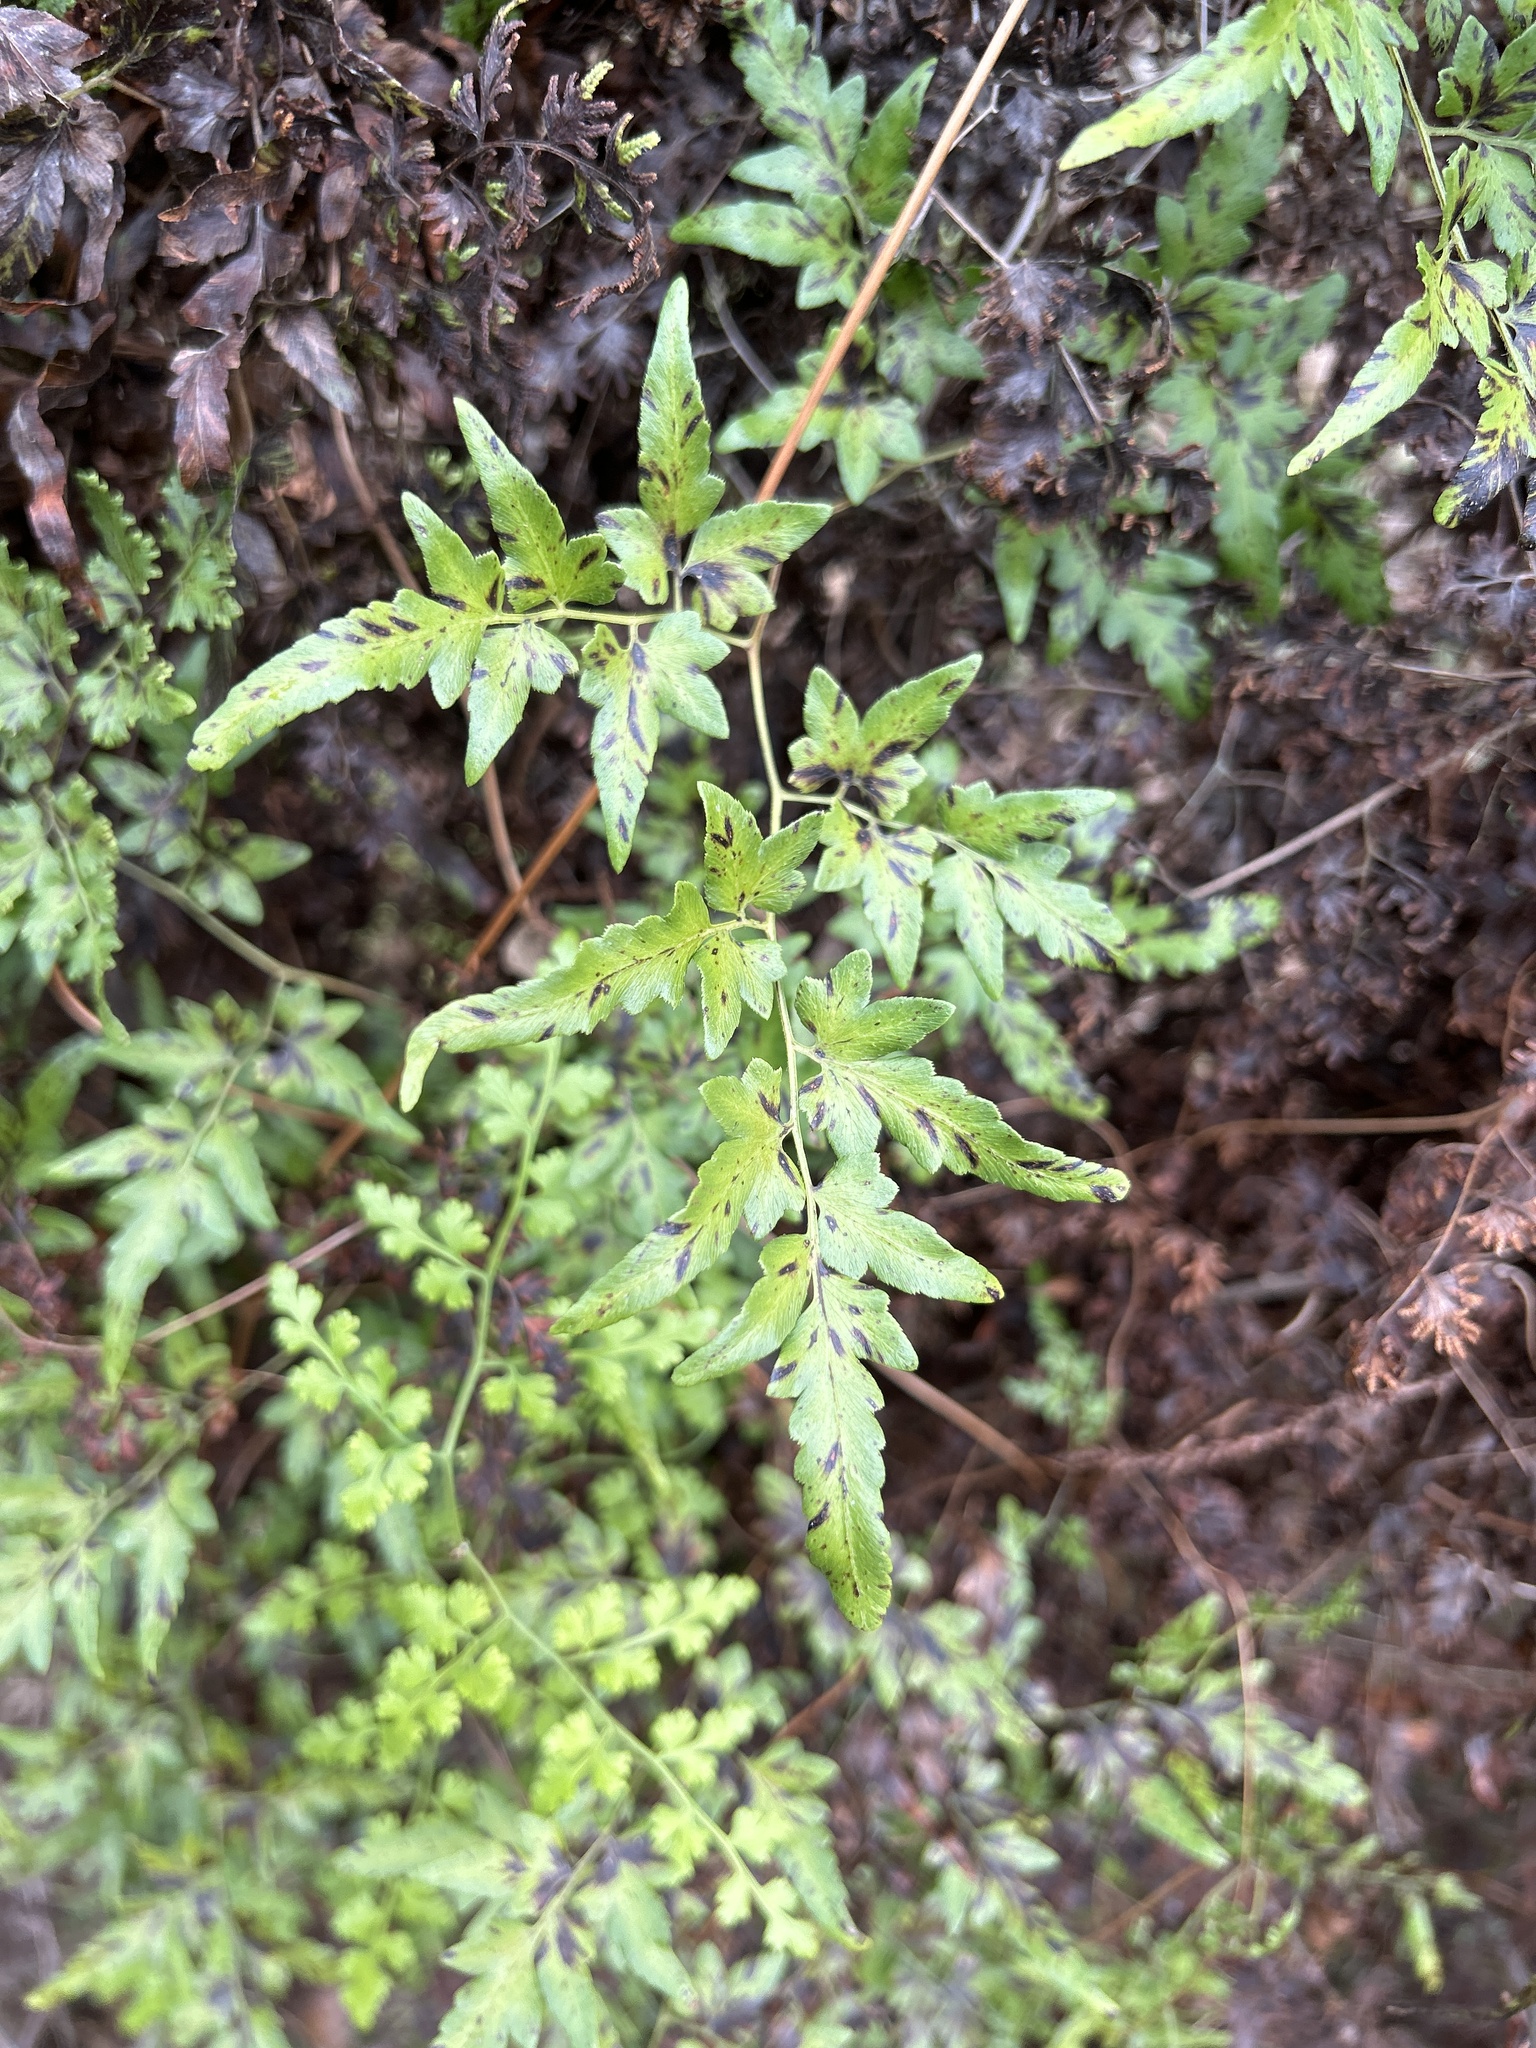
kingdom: Plantae
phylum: Tracheophyta
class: Polypodiopsida
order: Schizaeales
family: Lygodiaceae
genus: Lygodium
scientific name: Lygodium japonicum
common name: Japanese climbing fern
